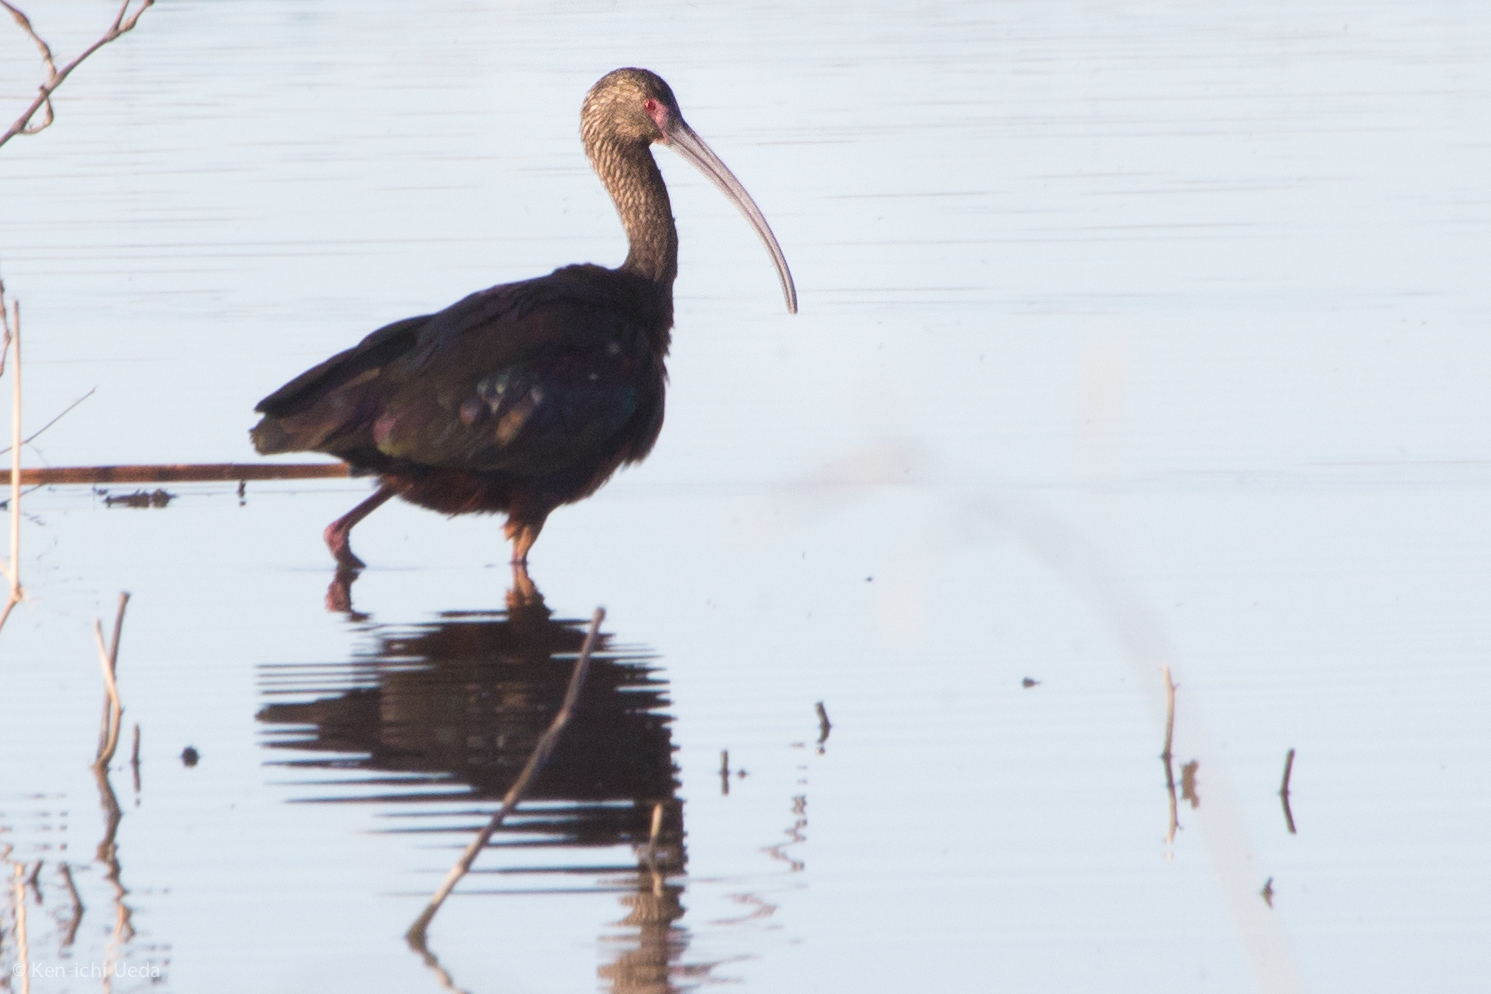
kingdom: Animalia
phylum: Chordata
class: Aves
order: Pelecaniformes
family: Threskiornithidae
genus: Plegadis
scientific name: Plegadis chihi
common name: White-faced ibis
